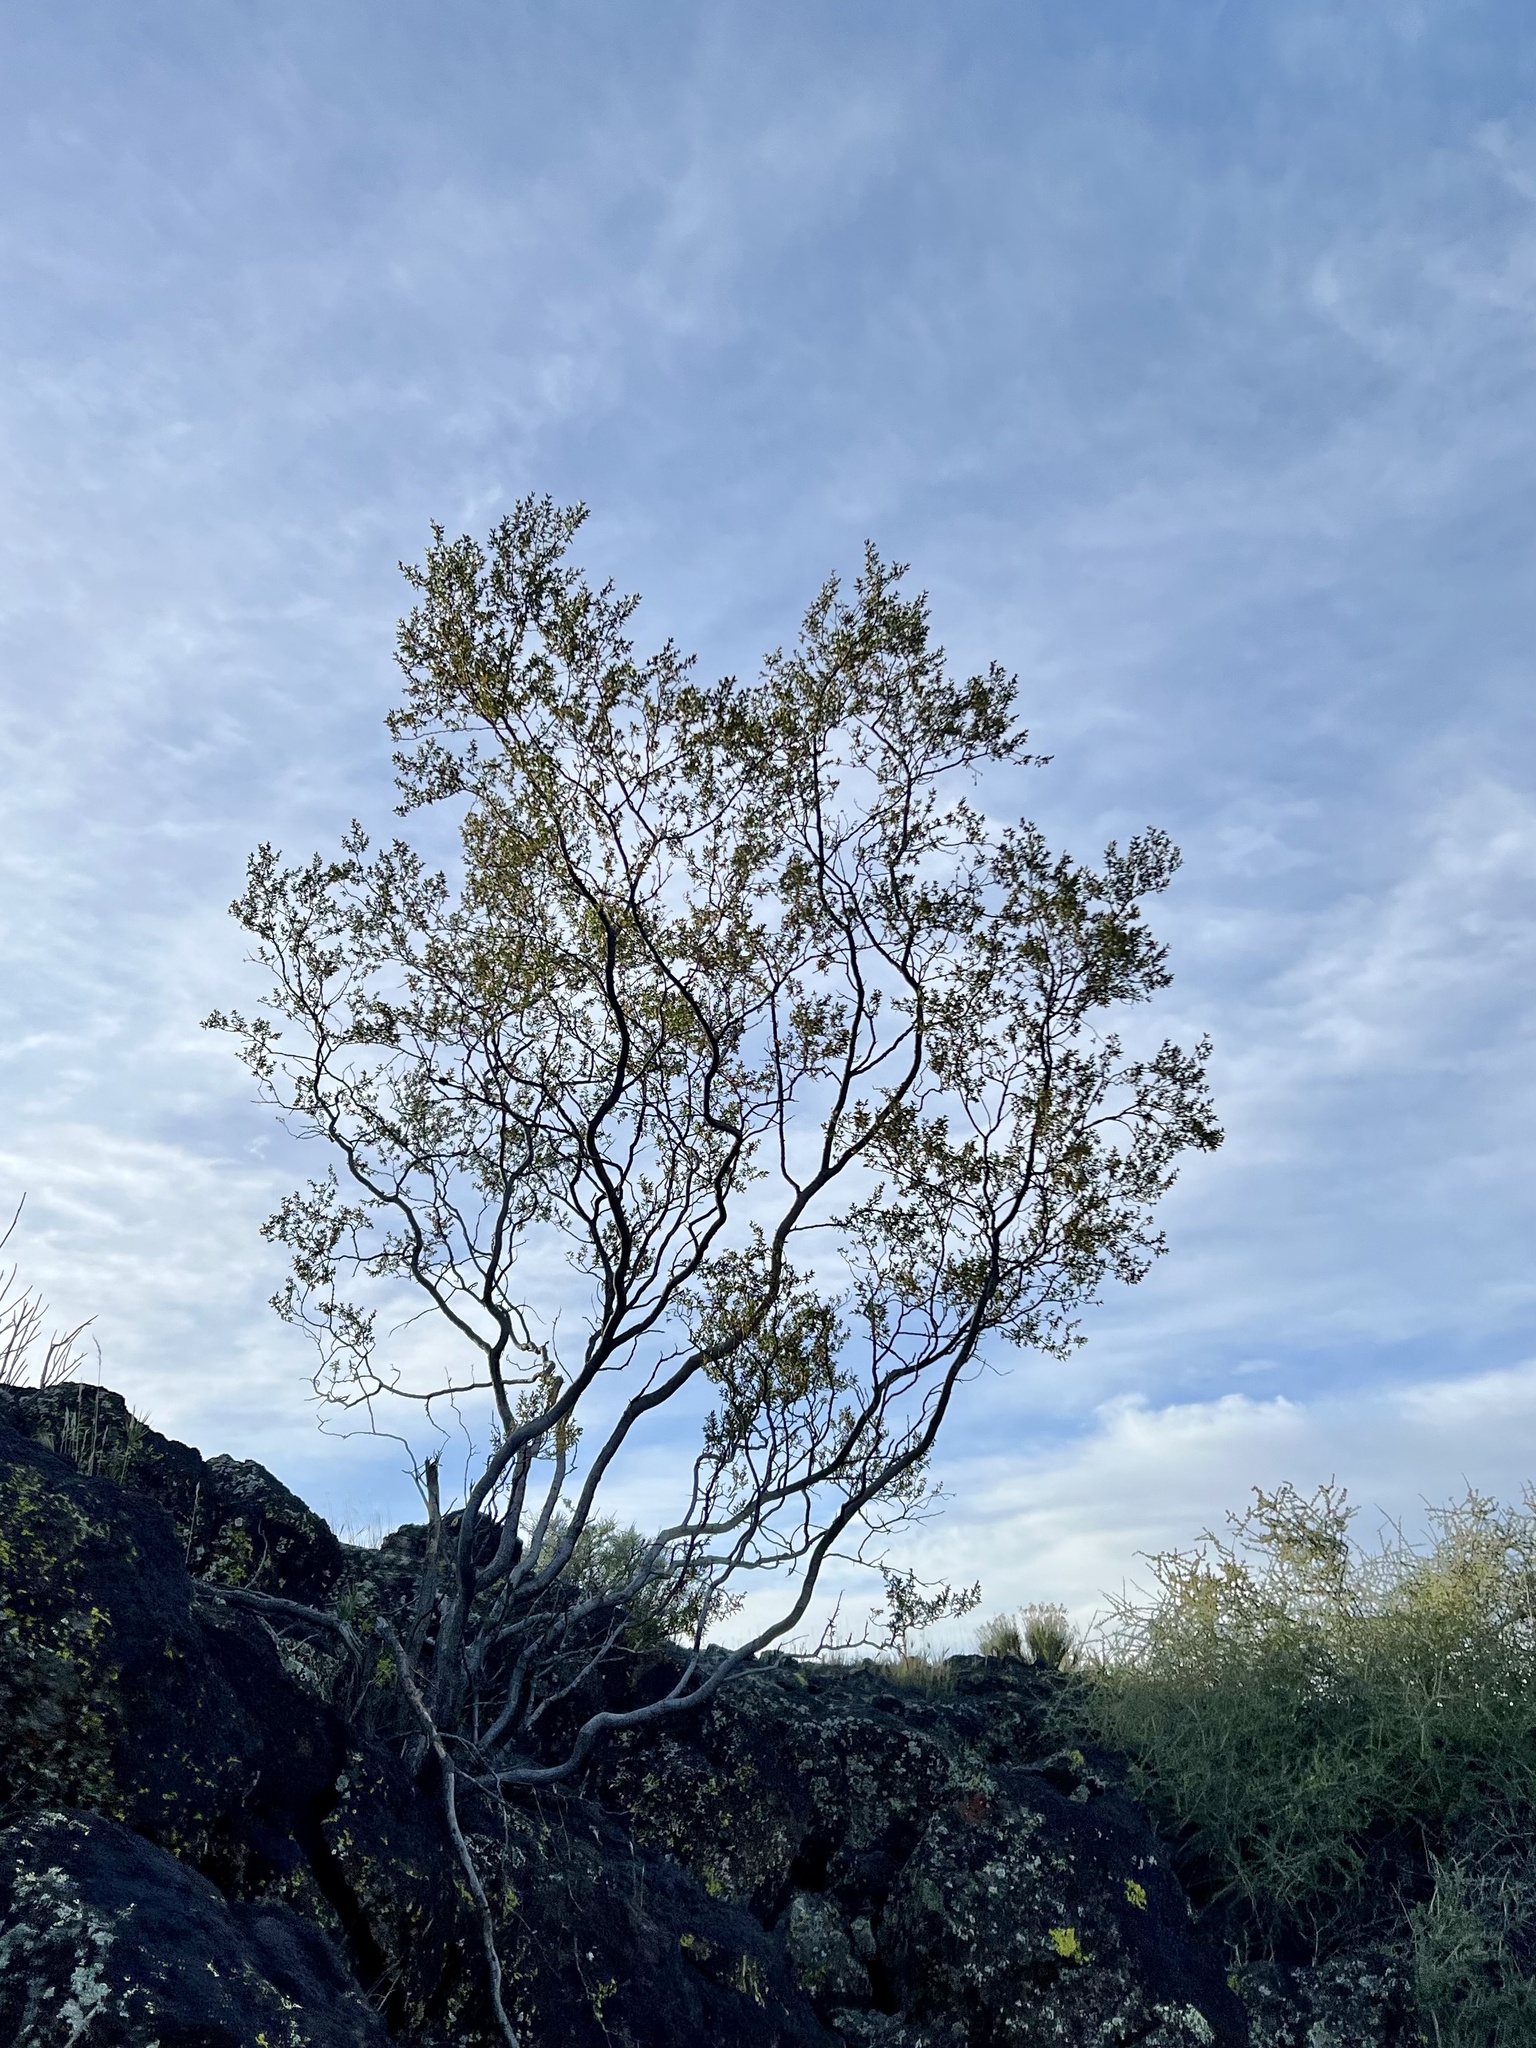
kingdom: Plantae
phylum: Tracheophyta
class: Magnoliopsida
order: Zygophyllales
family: Zygophyllaceae
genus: Larrea
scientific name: Larrea tridentata
